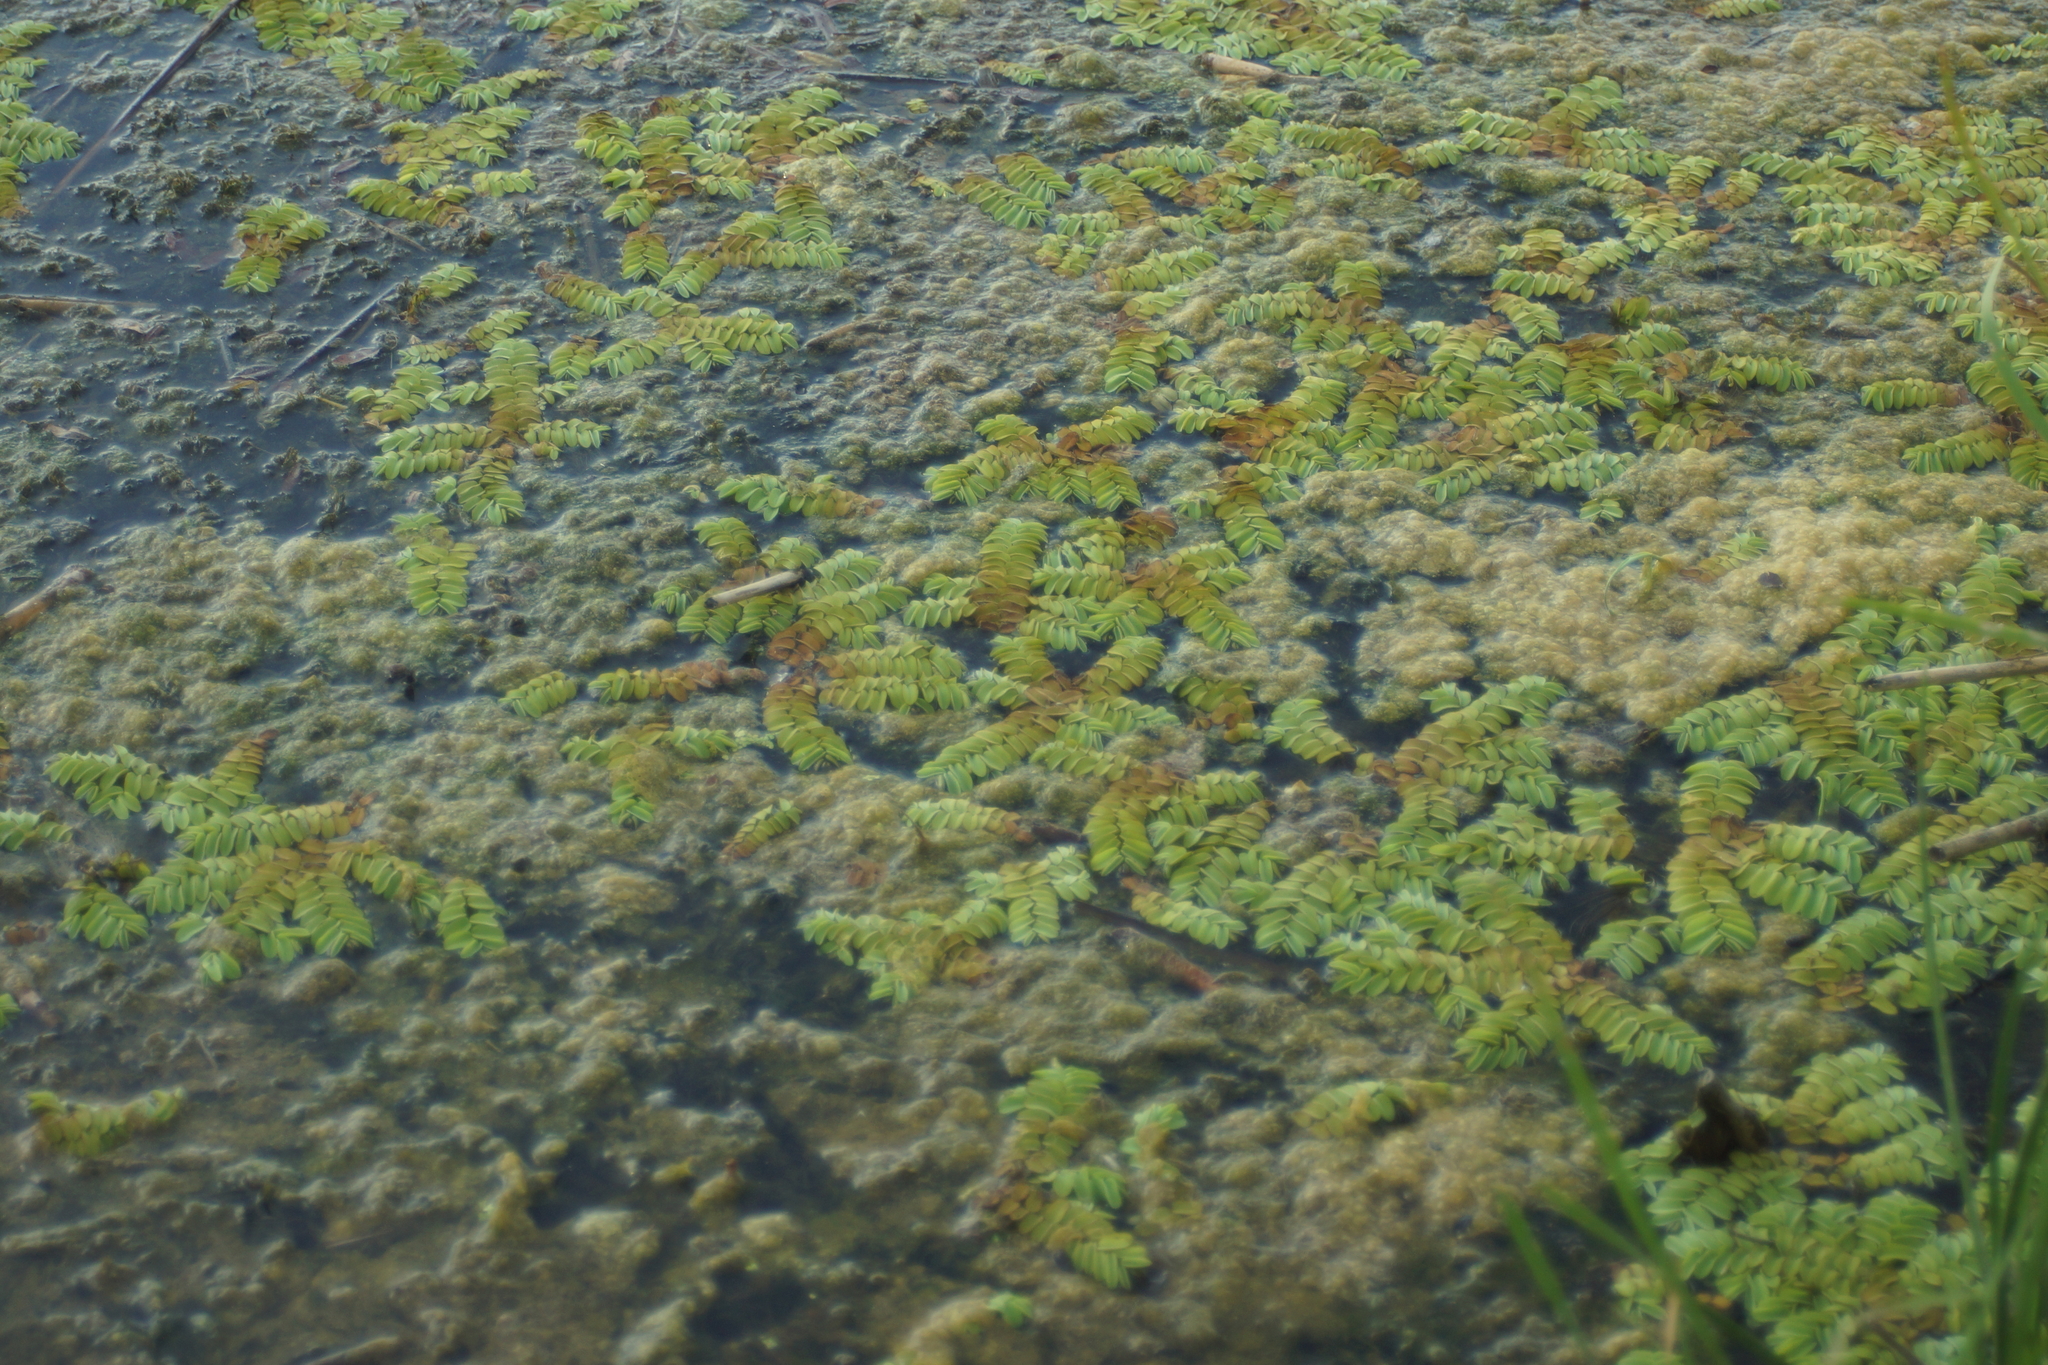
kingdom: Plantae
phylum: Tracheophyta
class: Polypodiopsida
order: Salviniales
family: Salviniaceae
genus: Salvinia
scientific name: Salvinia natans
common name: Floating fern
